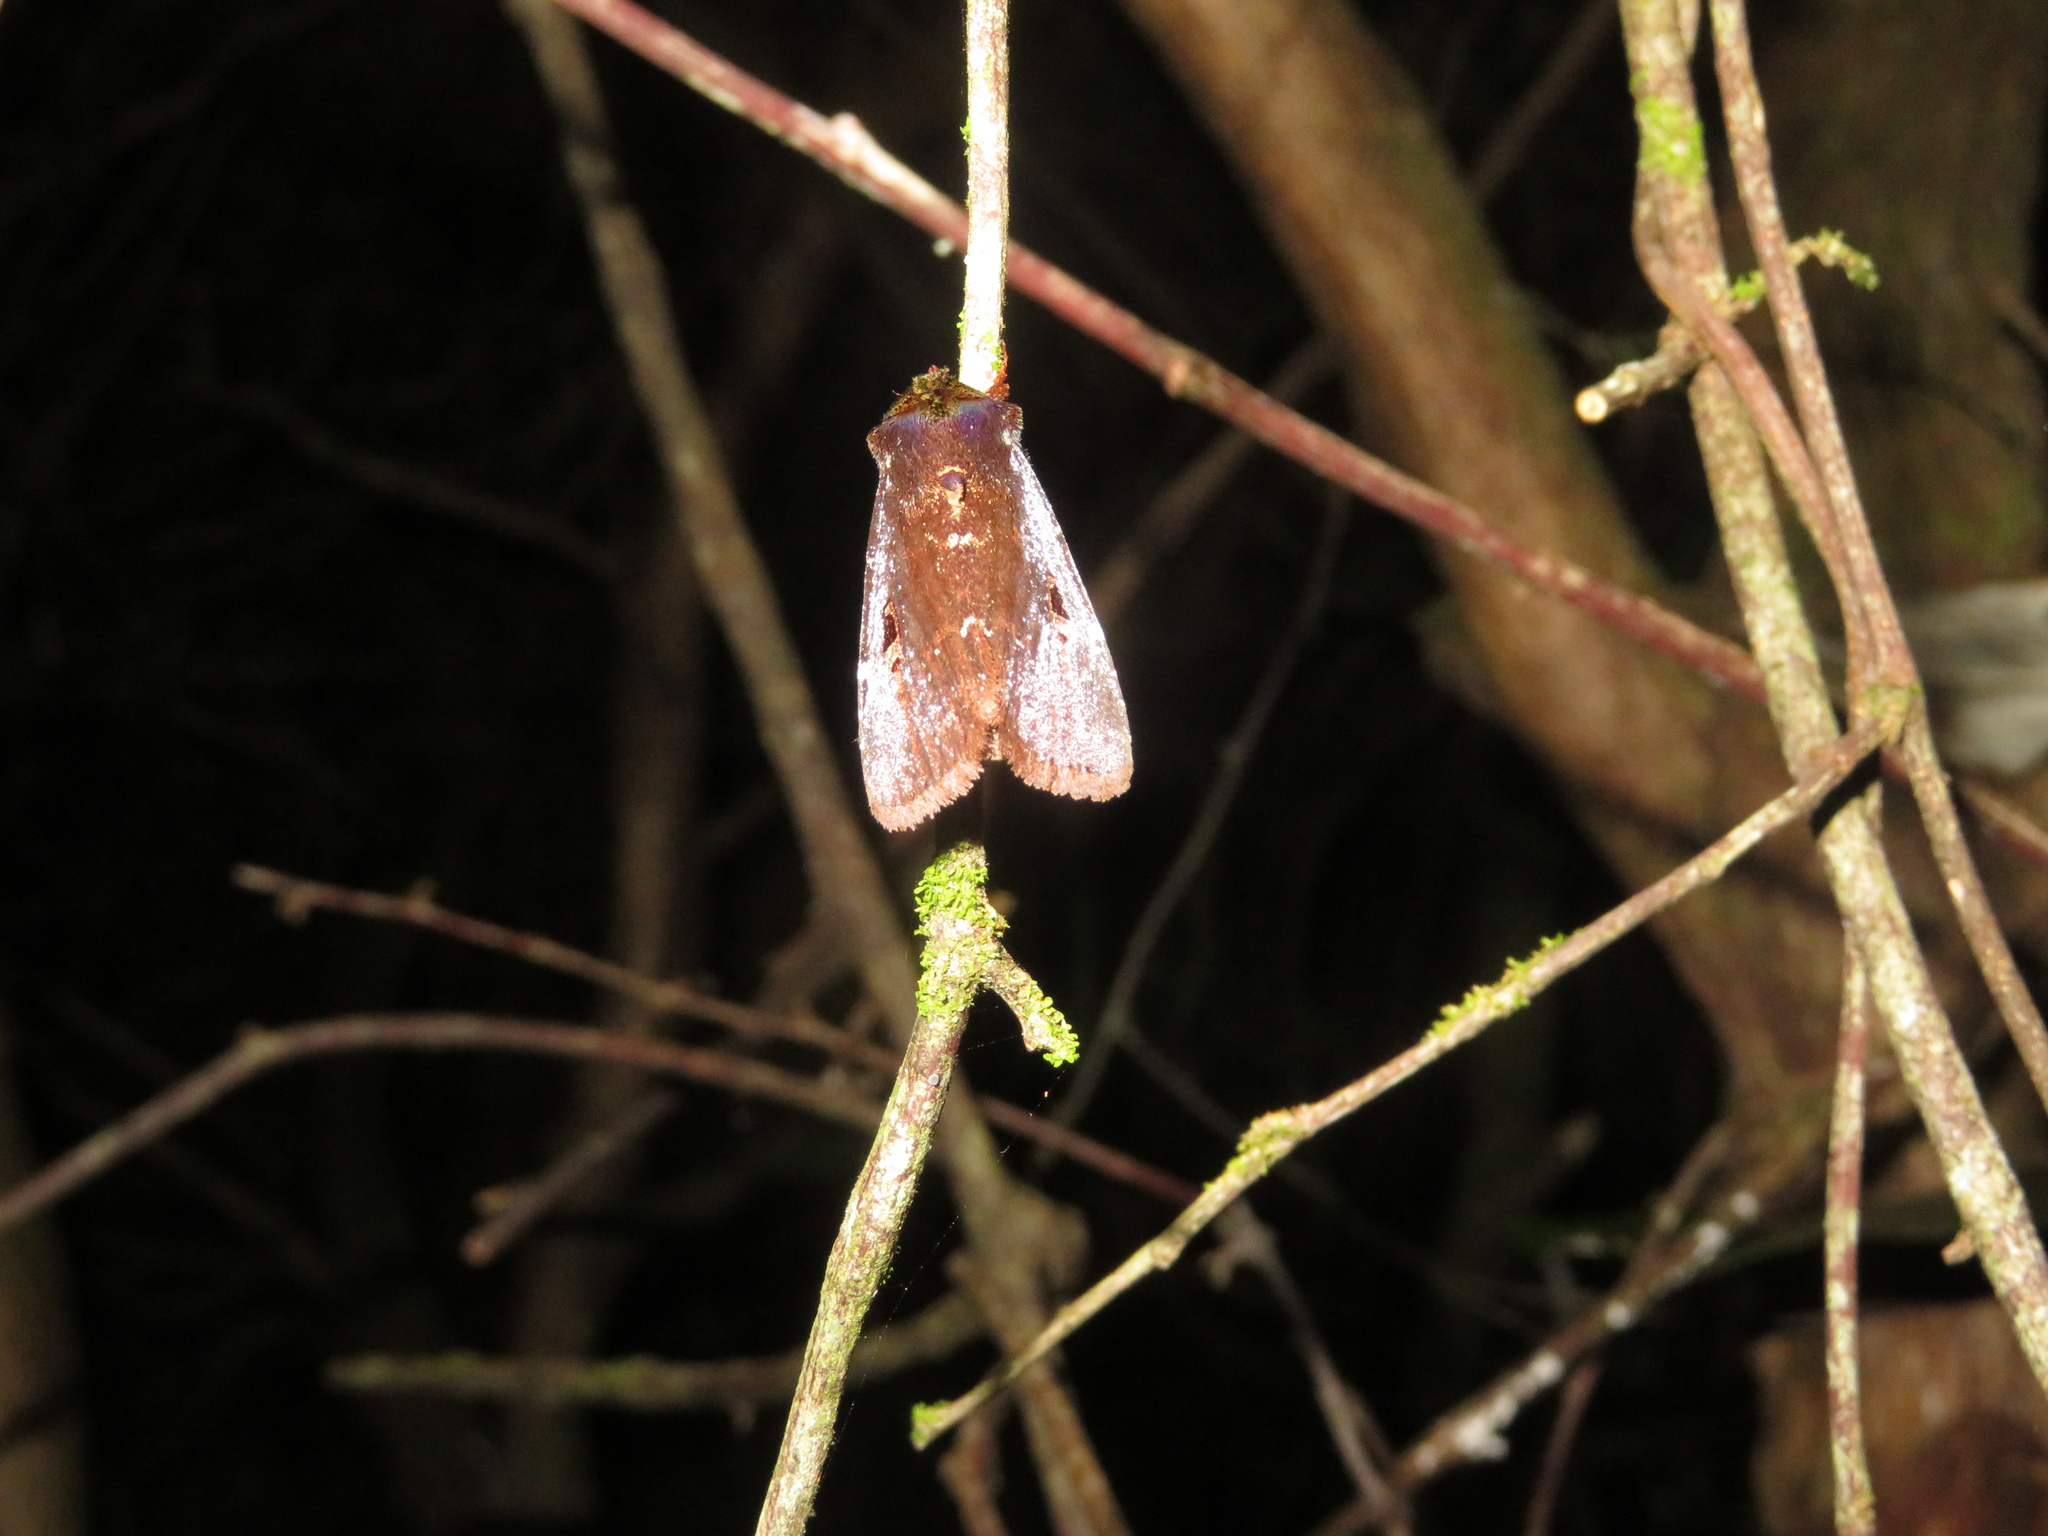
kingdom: Animalia
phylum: Arthropoda
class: Insecta
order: Lepidoptera
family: Noctuidae
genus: Austramathes
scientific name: Austramathes purpurea
